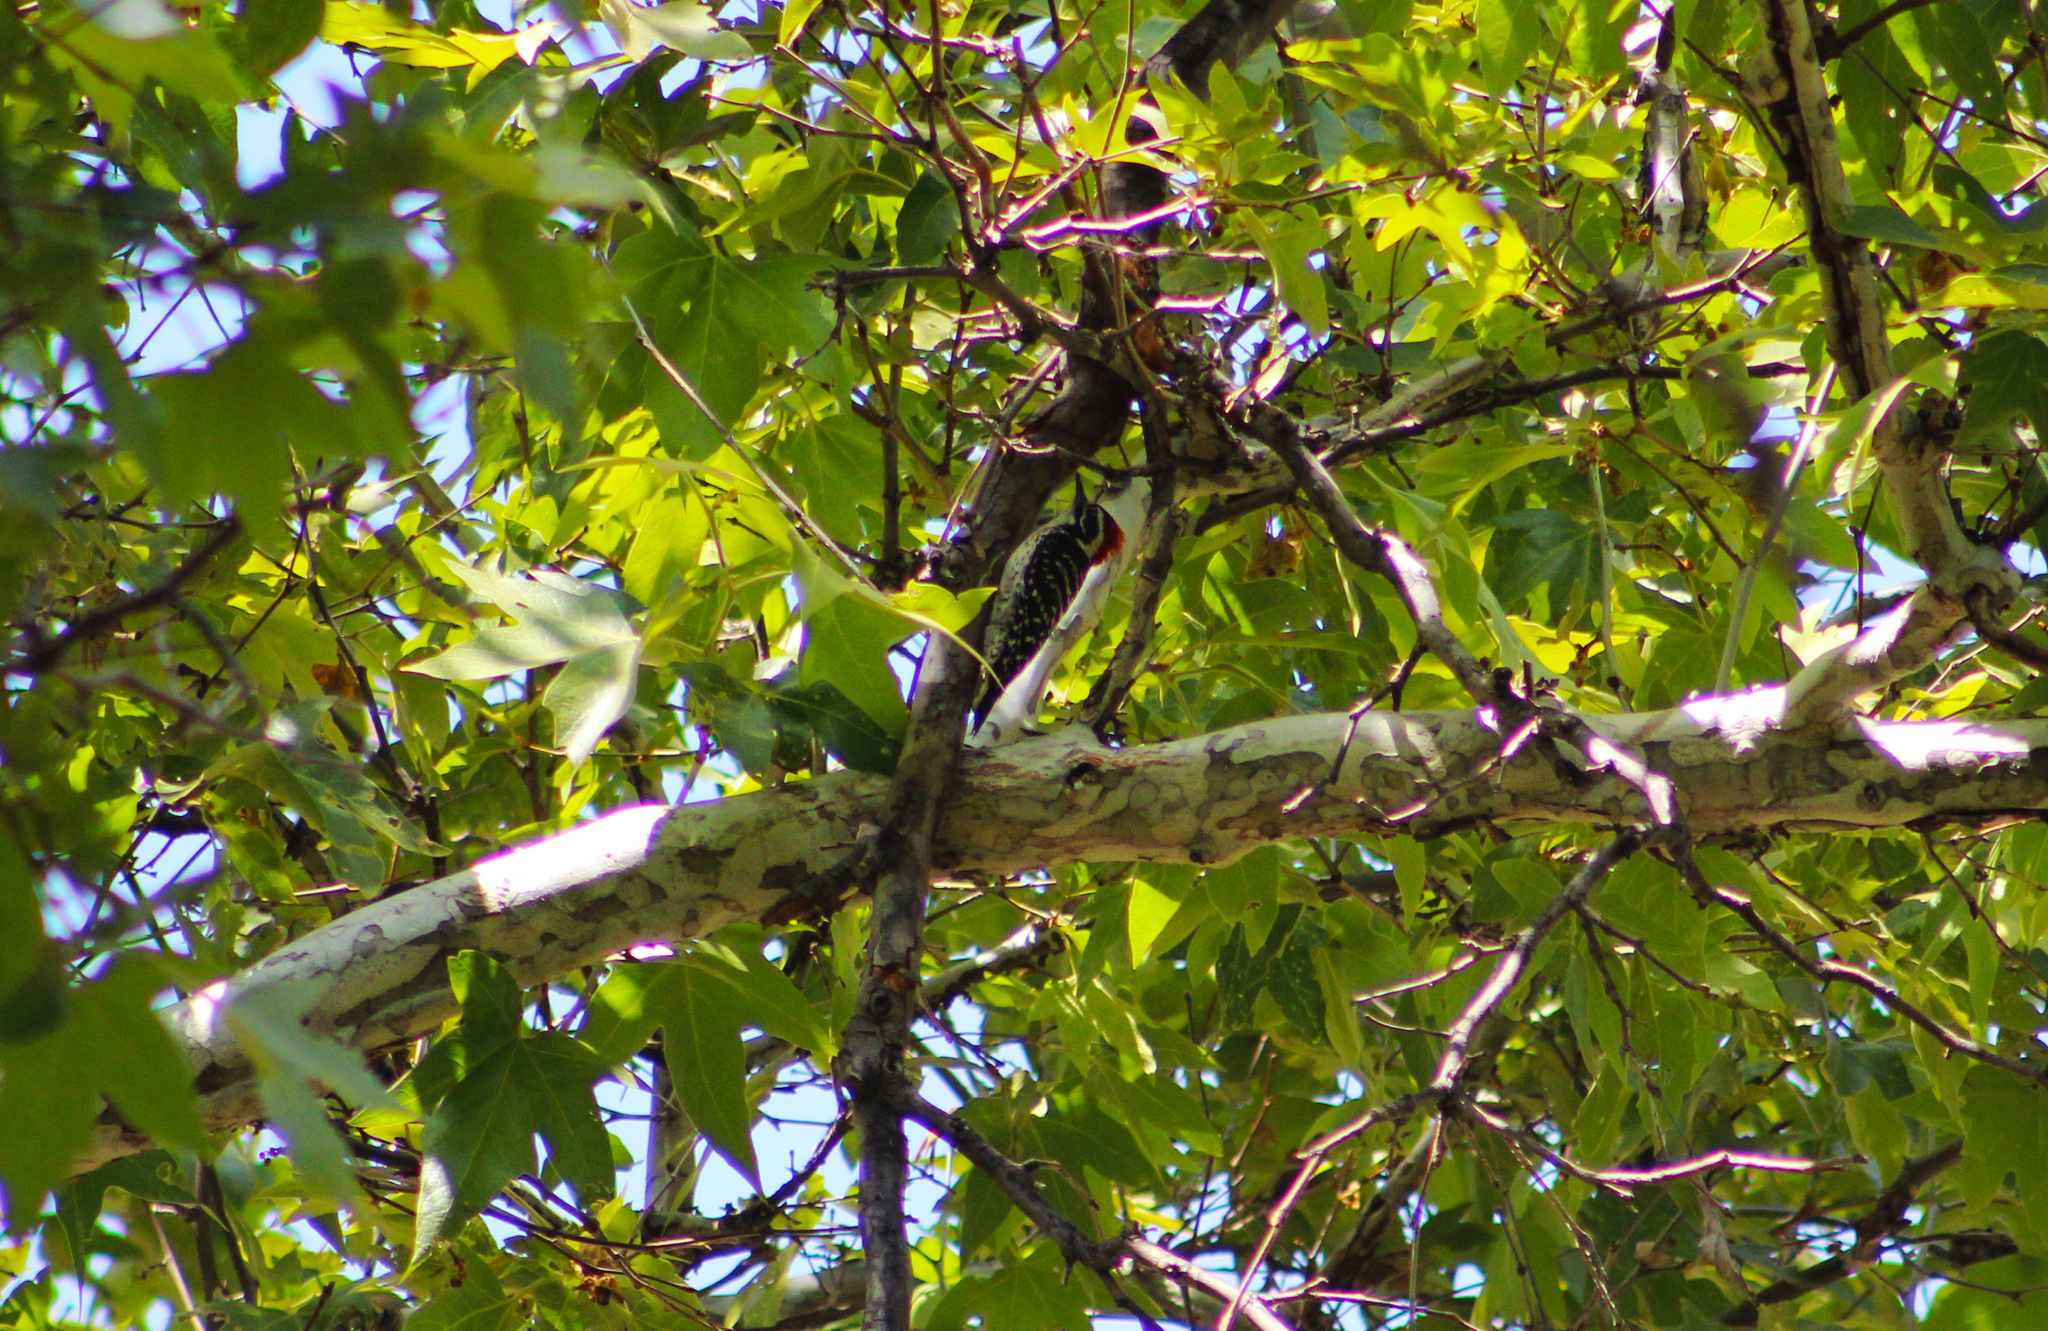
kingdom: Animalia
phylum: Chordata
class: Aves
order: Piciformes
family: Picidae
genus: Dryobates
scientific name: Dryobates nuttallii
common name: Nuttall's woodpecker
